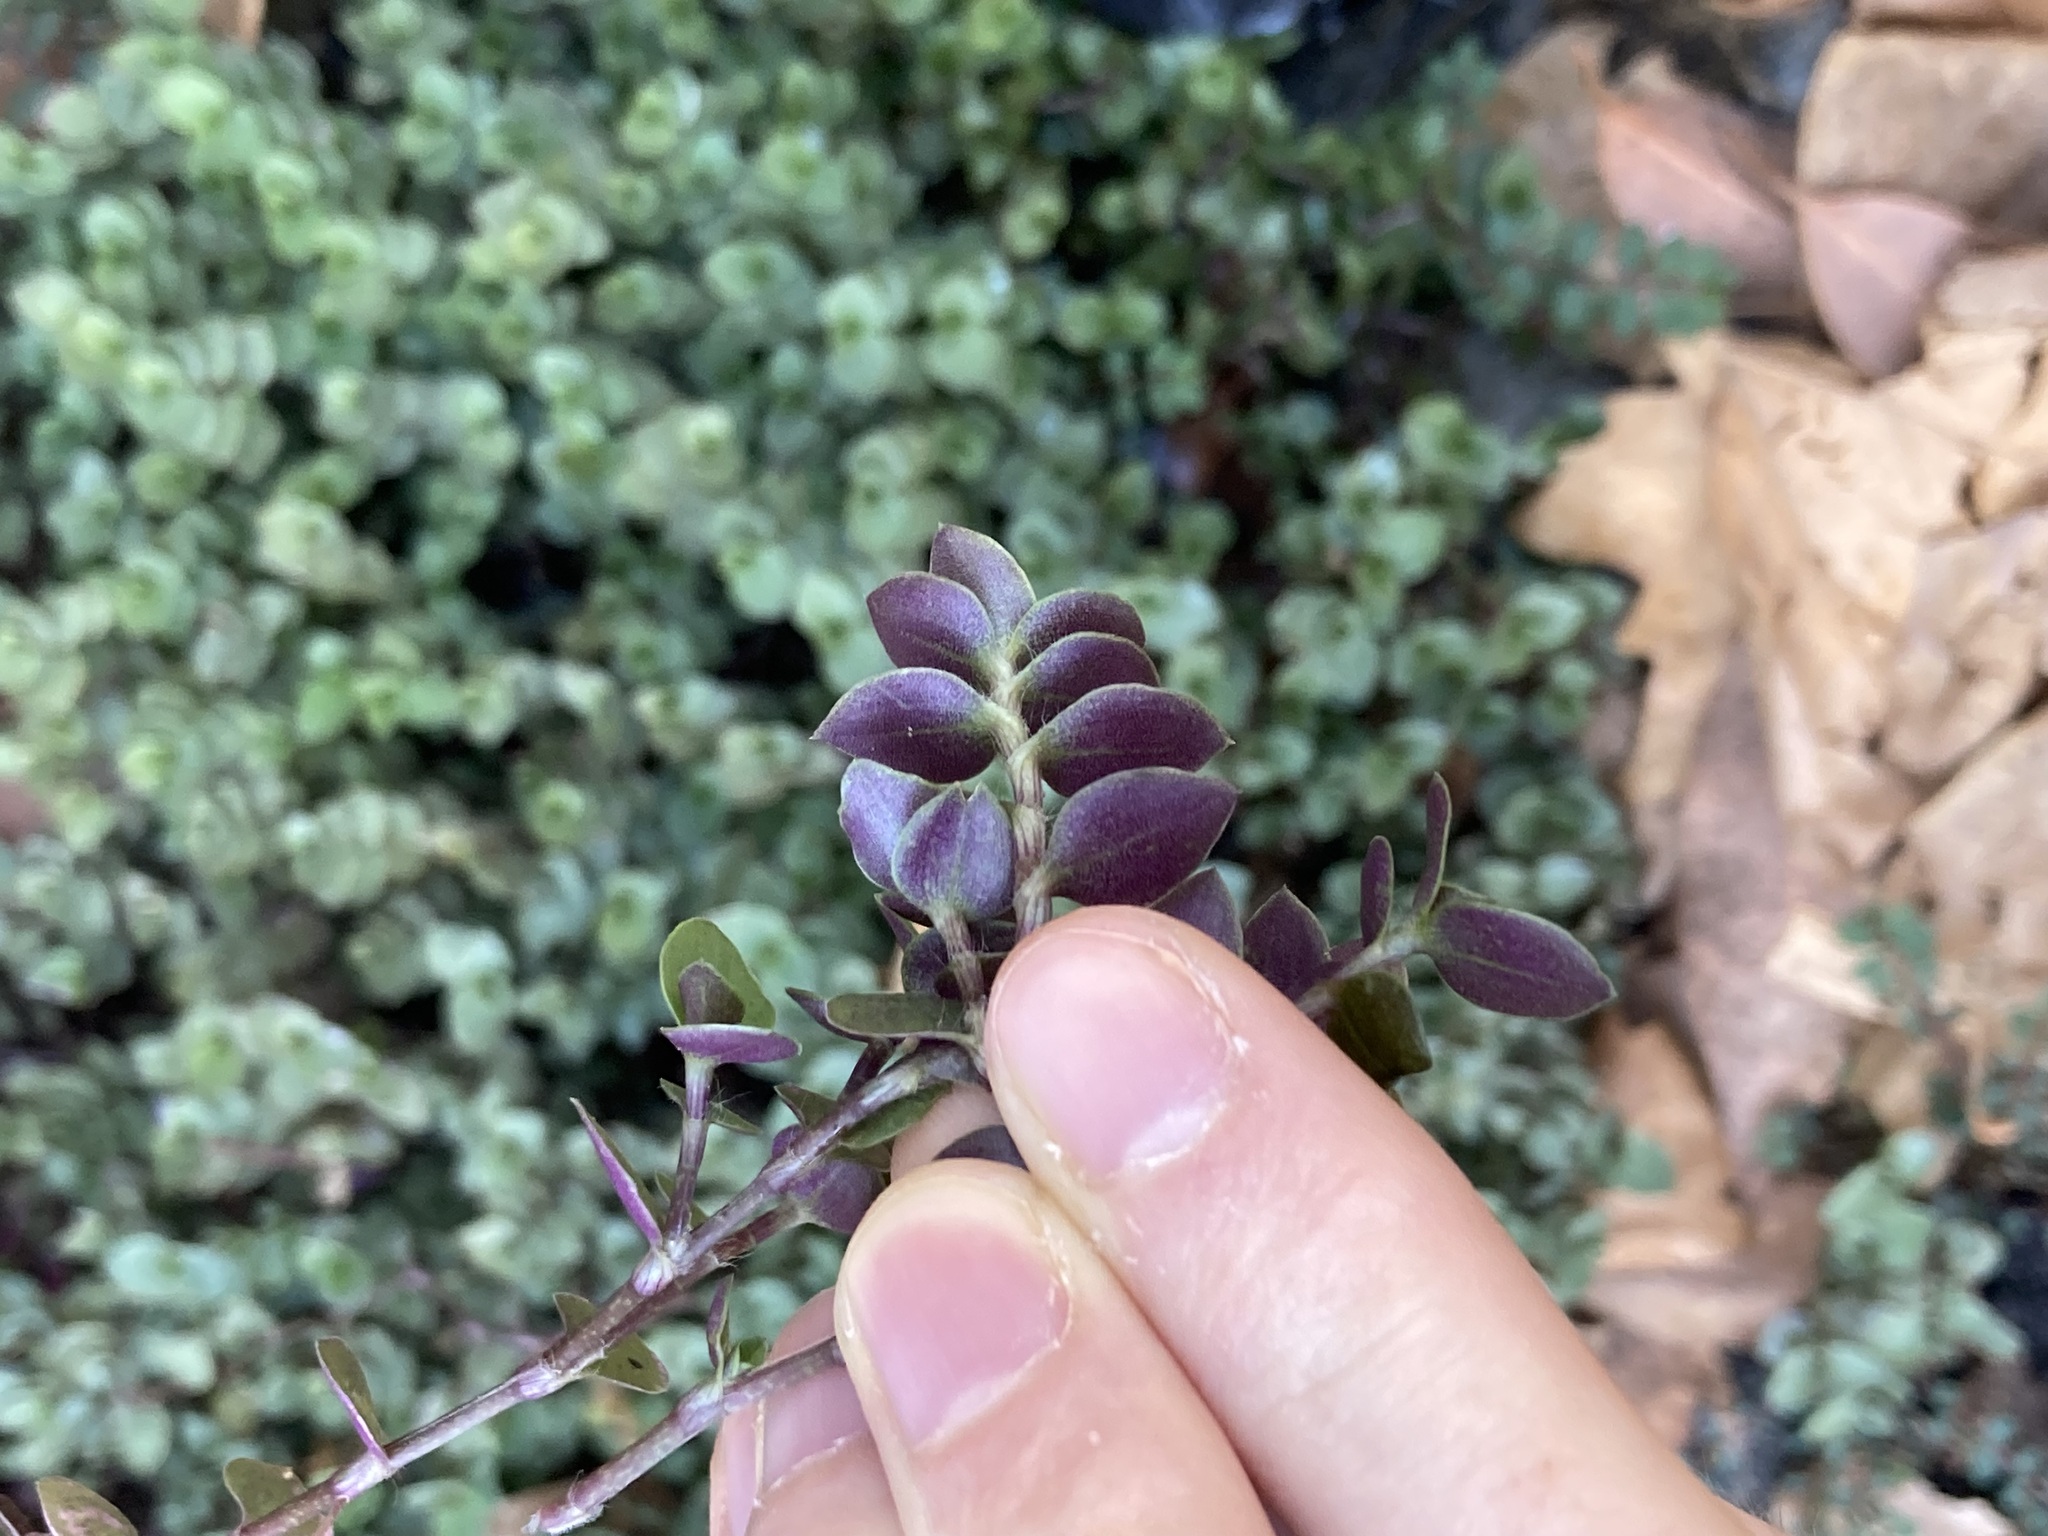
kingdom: Plantae
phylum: Tracheophyta
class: Liliopsida
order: Commelinales
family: Commelinaceae
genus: Callisia
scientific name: Callisia repens
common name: Creeping inchplant
